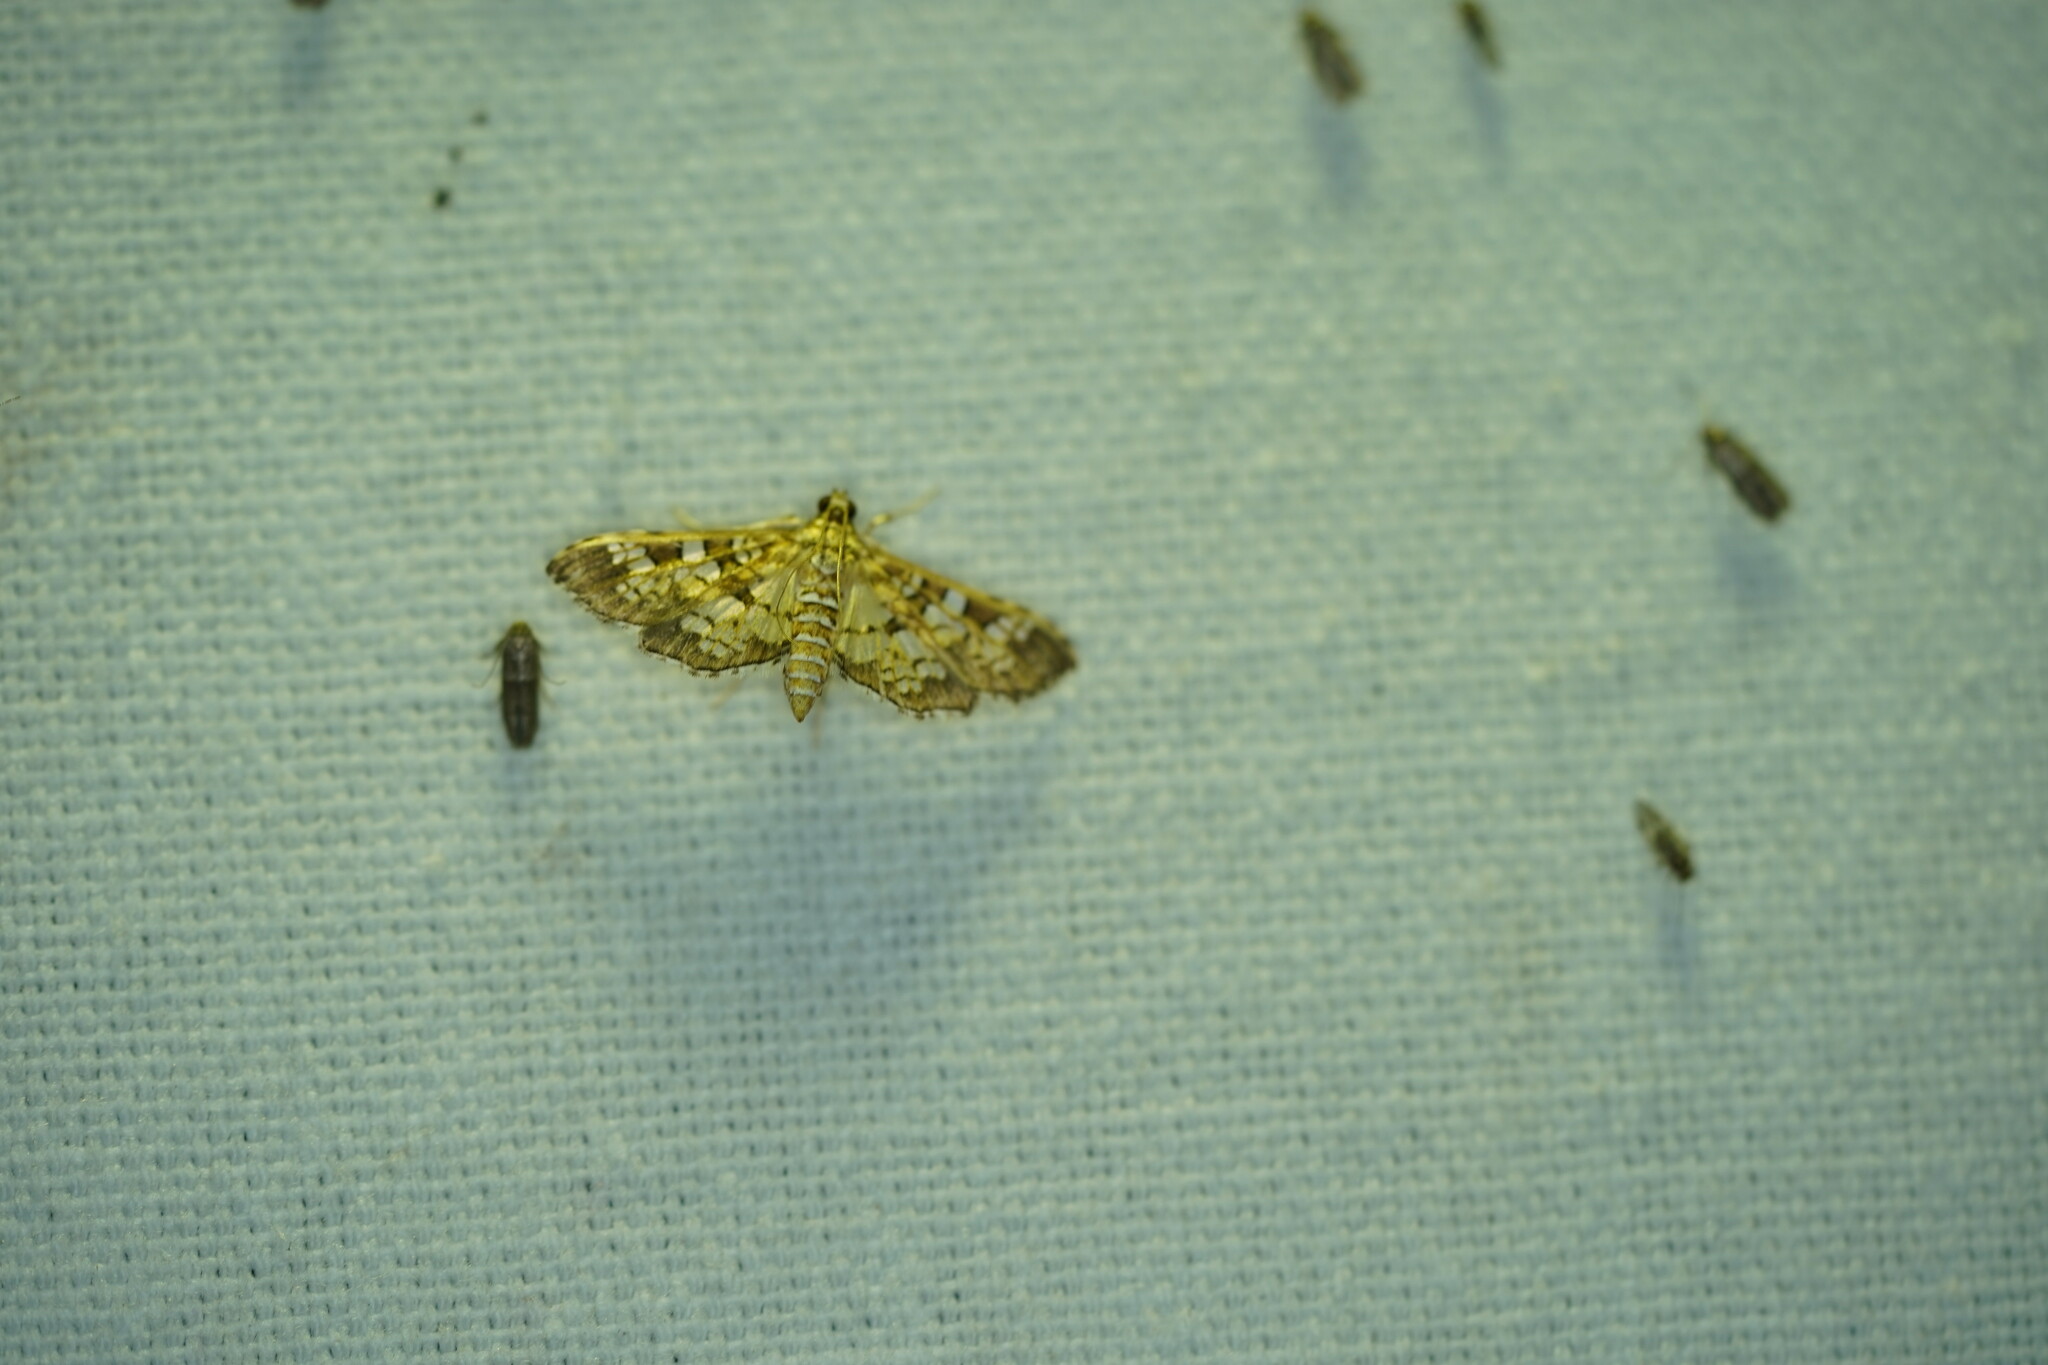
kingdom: Animalia
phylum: Arthropoda
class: Insecta
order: Lepidoptera
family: Crambidae
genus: Samea
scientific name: Samea ecclesialis
